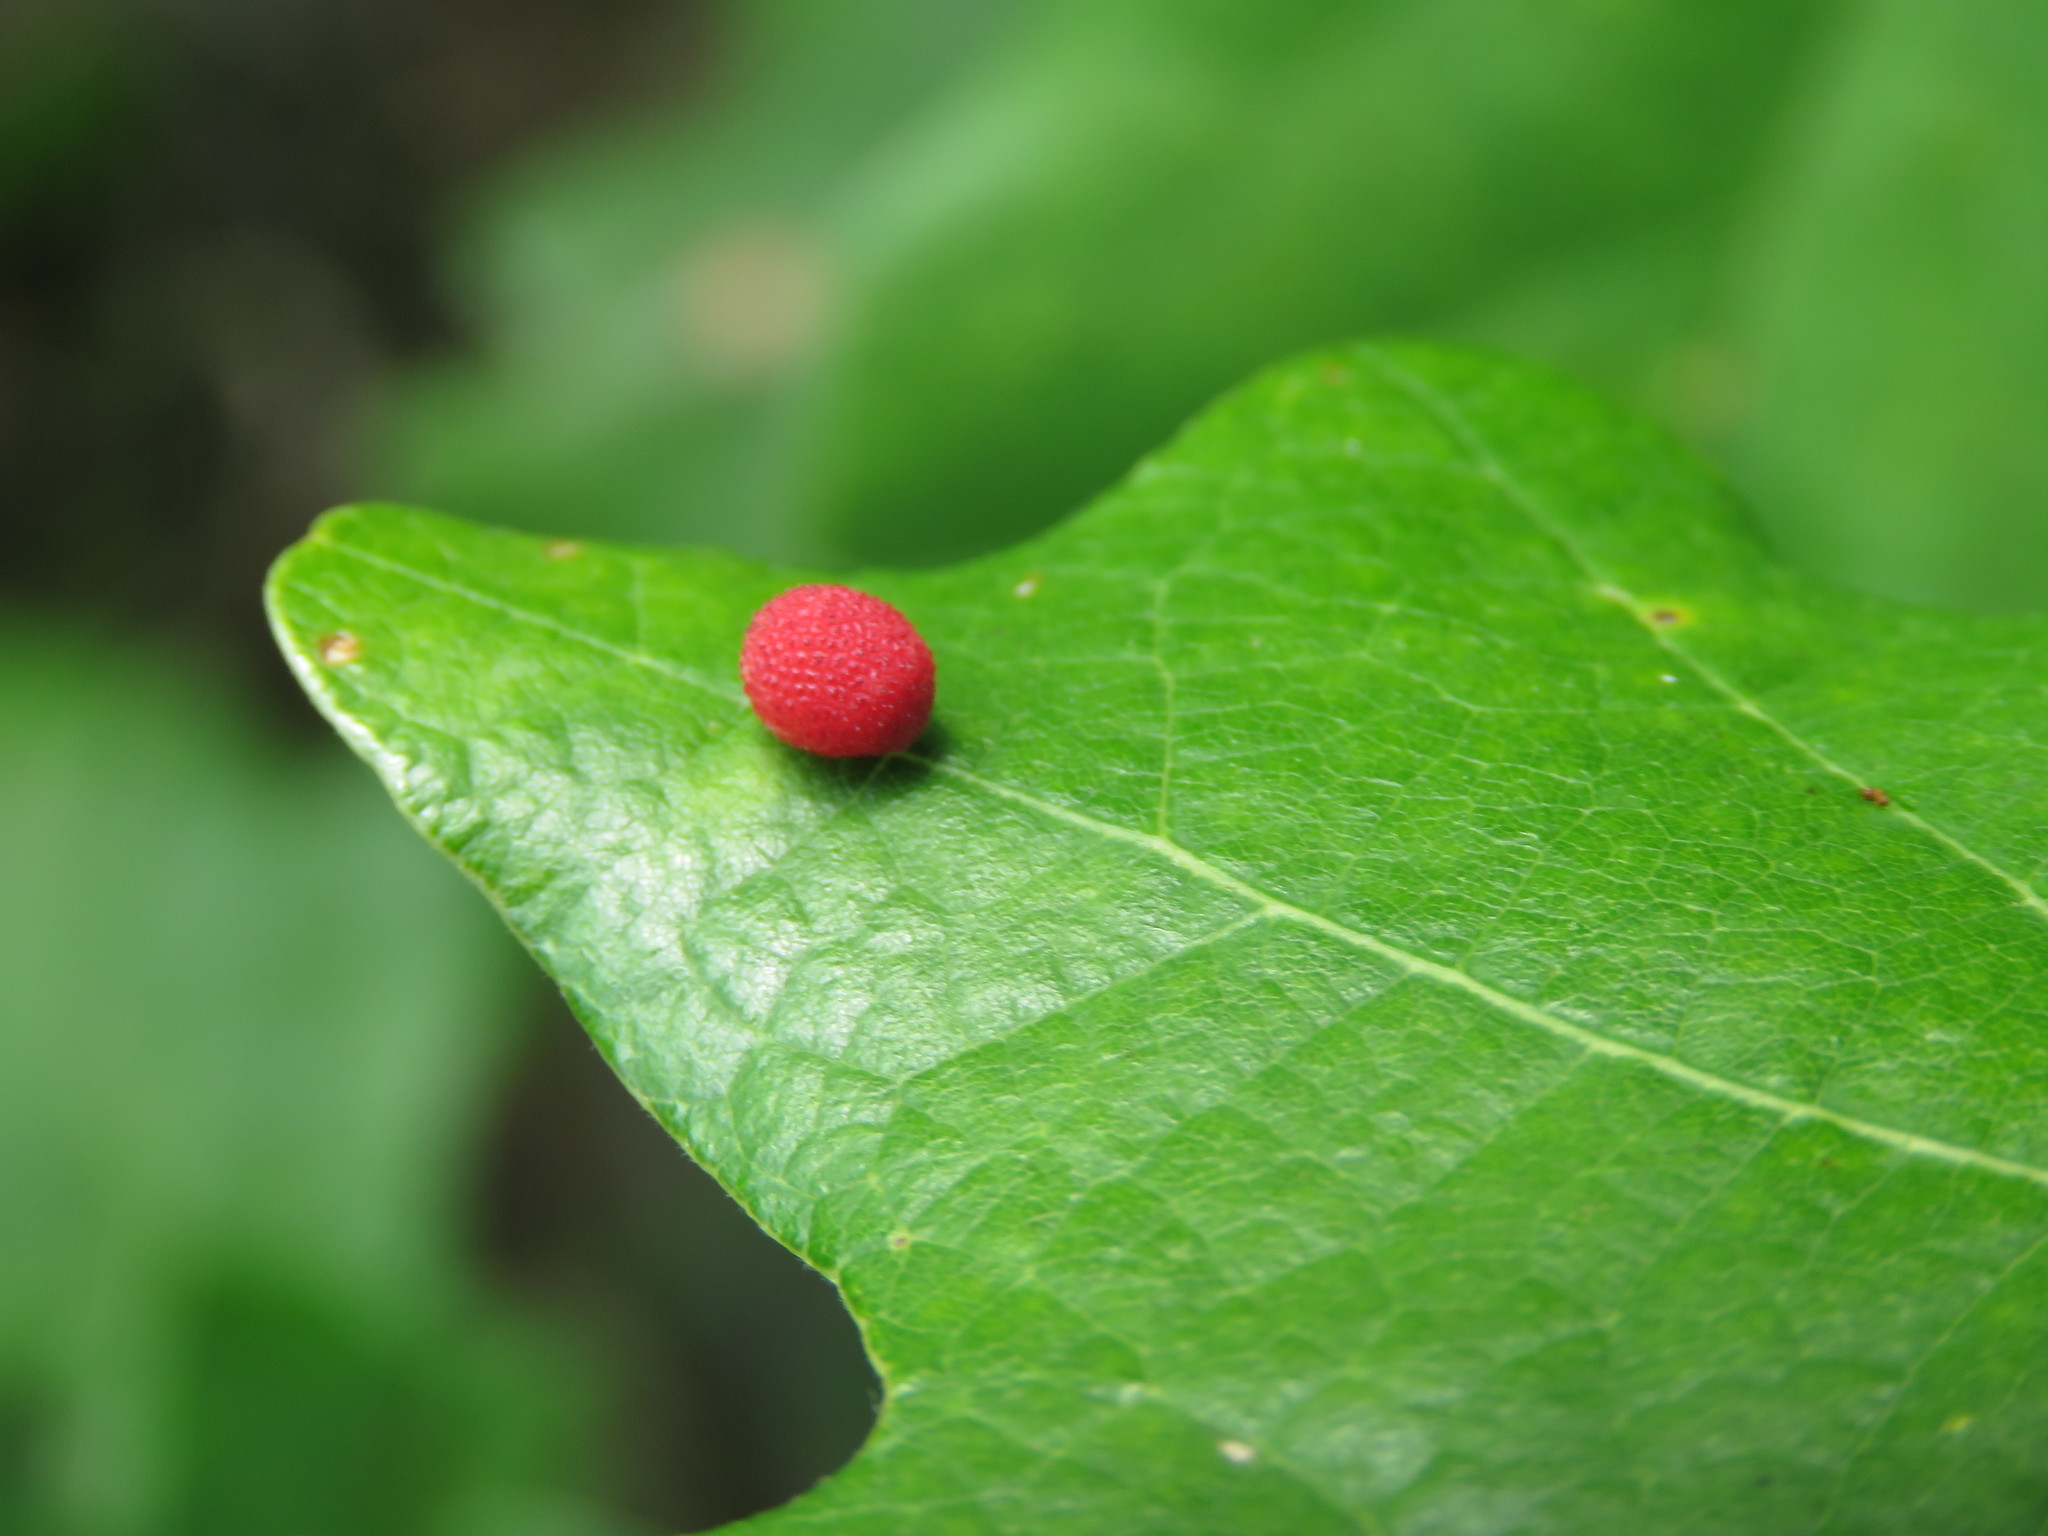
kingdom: Animalia
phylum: Arthropoda
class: Insecta
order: Hymenoptera
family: Cynipidae
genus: Acraspis
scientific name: Acraspis quercushirta
